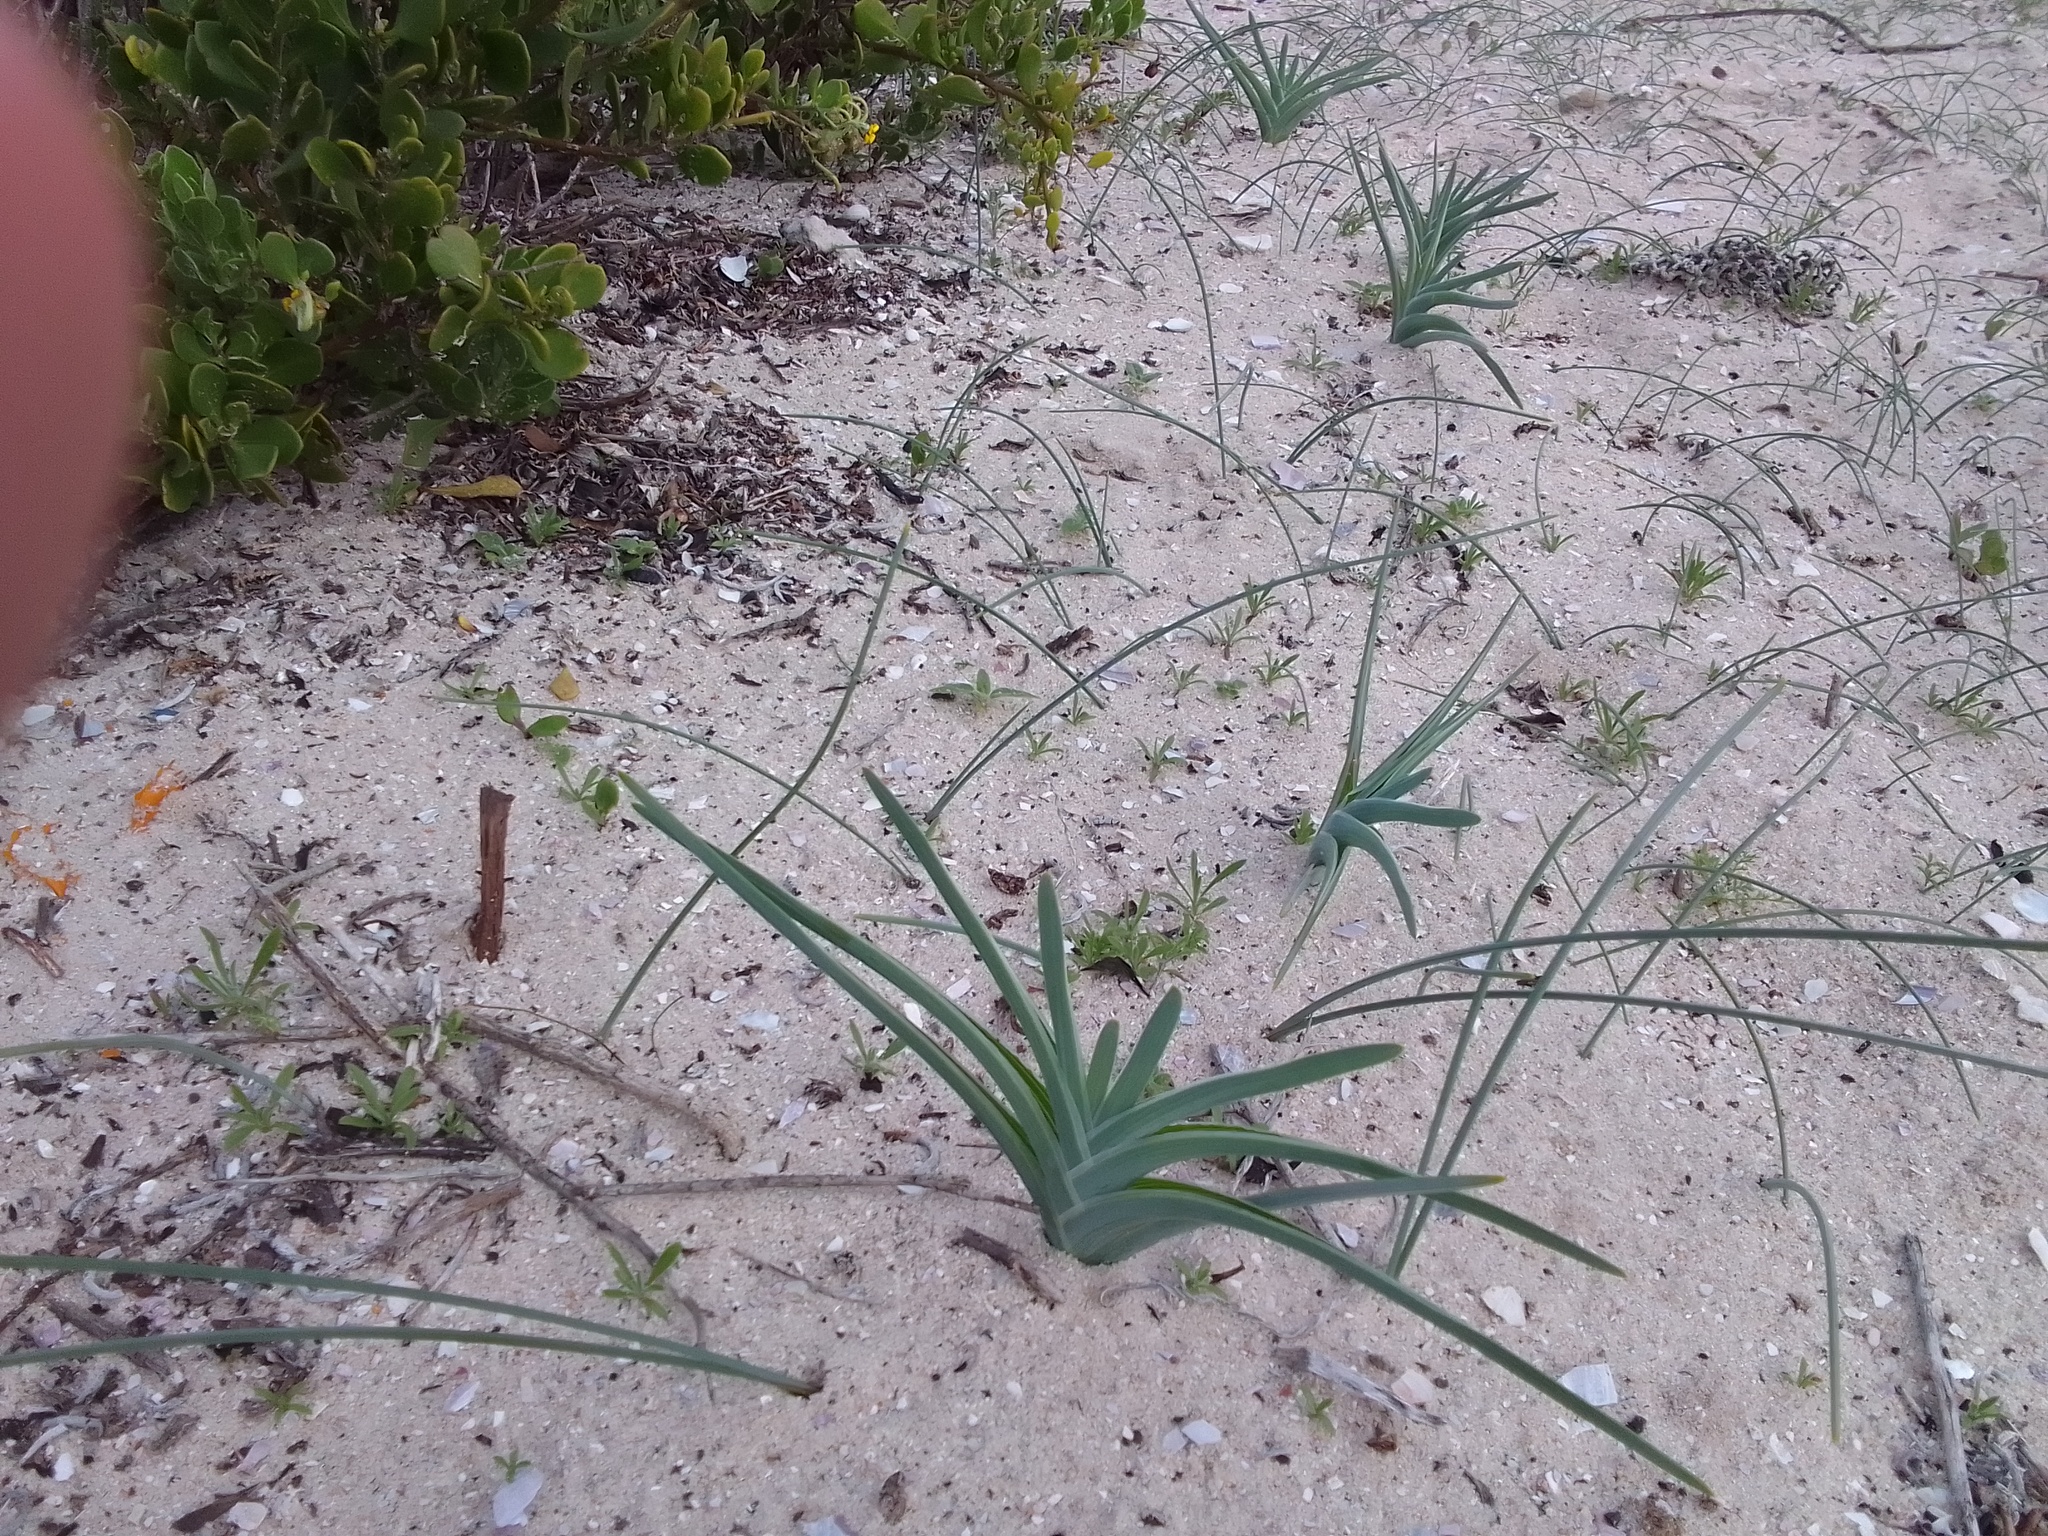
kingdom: Plantae
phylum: Tracheophyta
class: Liliopsida
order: Asparagales
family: Iridaceae
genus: Ferraria
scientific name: Ferraria foliosa
